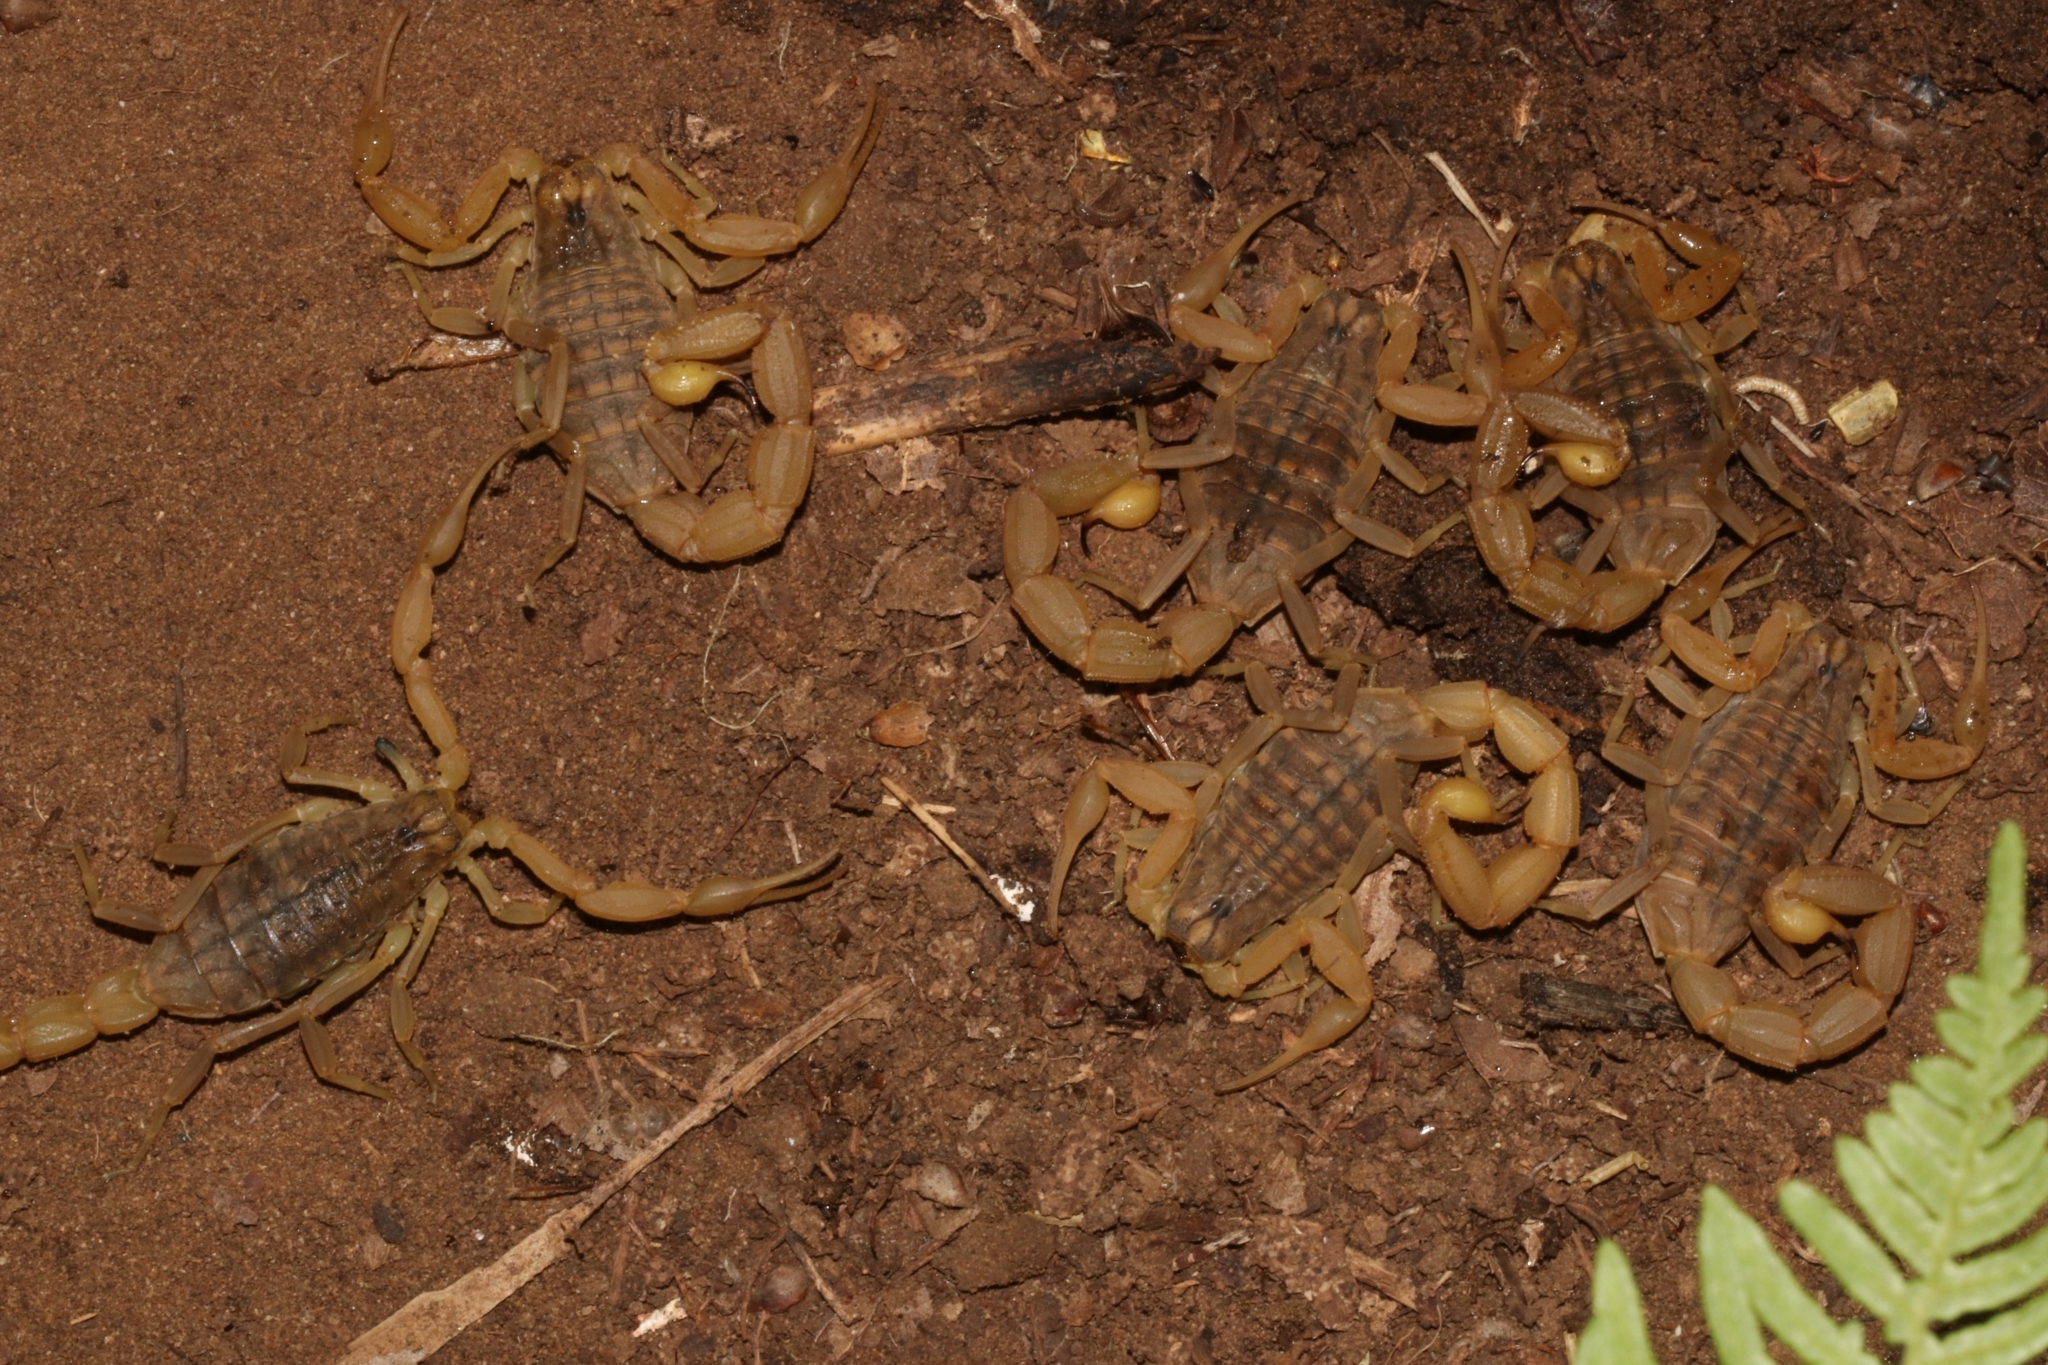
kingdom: Animalia
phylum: Arthropoda
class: Arachnida
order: Scorpiones
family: Buthidae
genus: Aegaeobuthus
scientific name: Aegaeobuthus gibbosus
